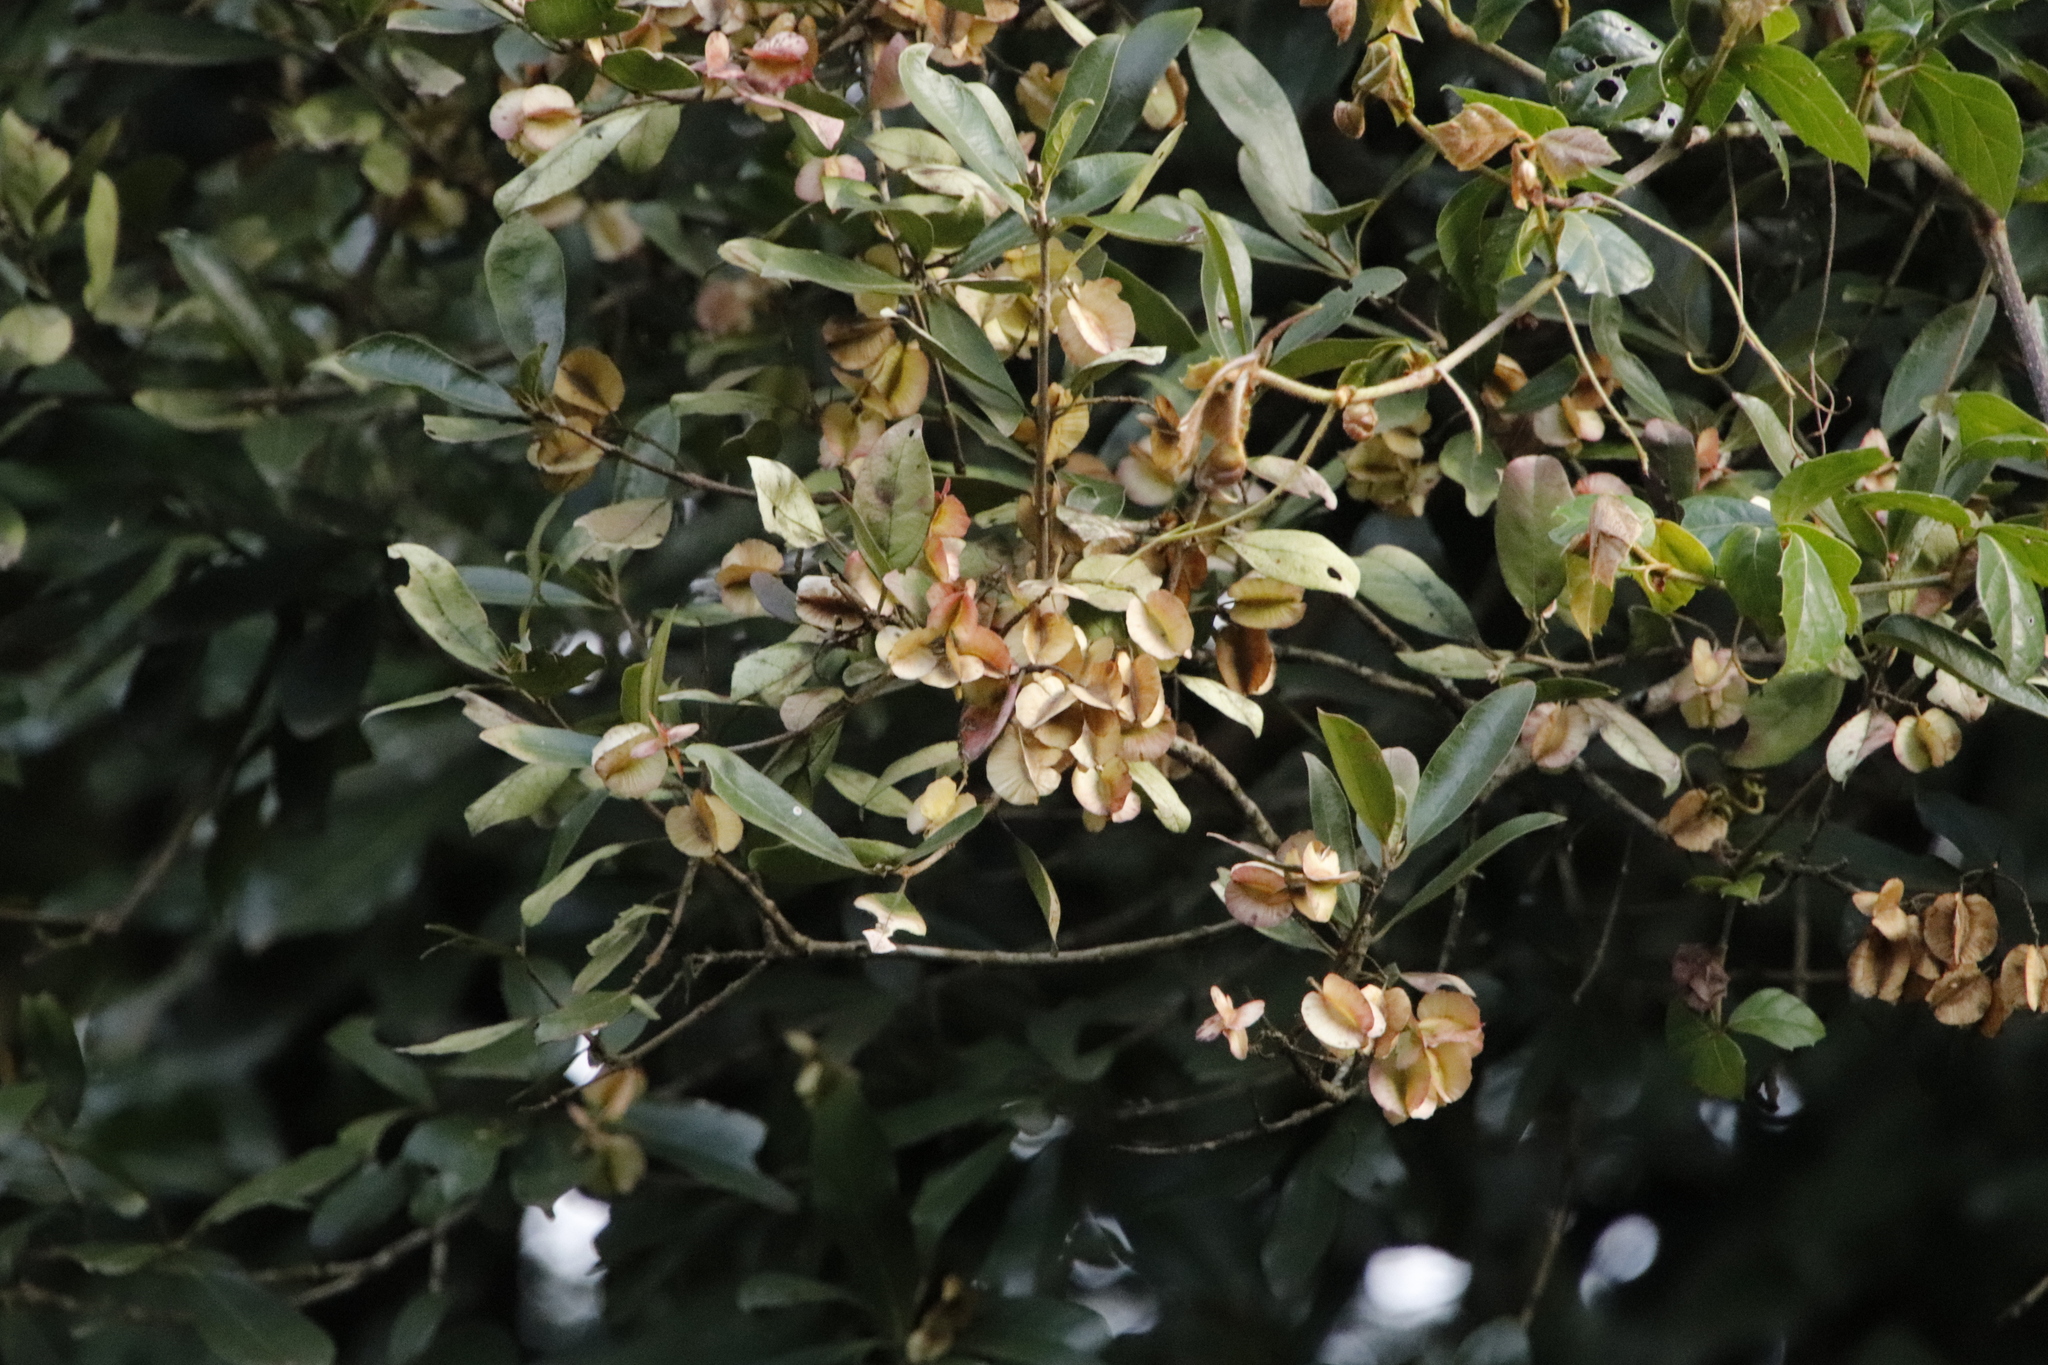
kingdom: Plantae
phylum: Tracheophyta
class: Magnoliopsida
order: Myrtales
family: Combretaceae
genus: Combretum
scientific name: Combretum kraussii
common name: Forest bushwillow
